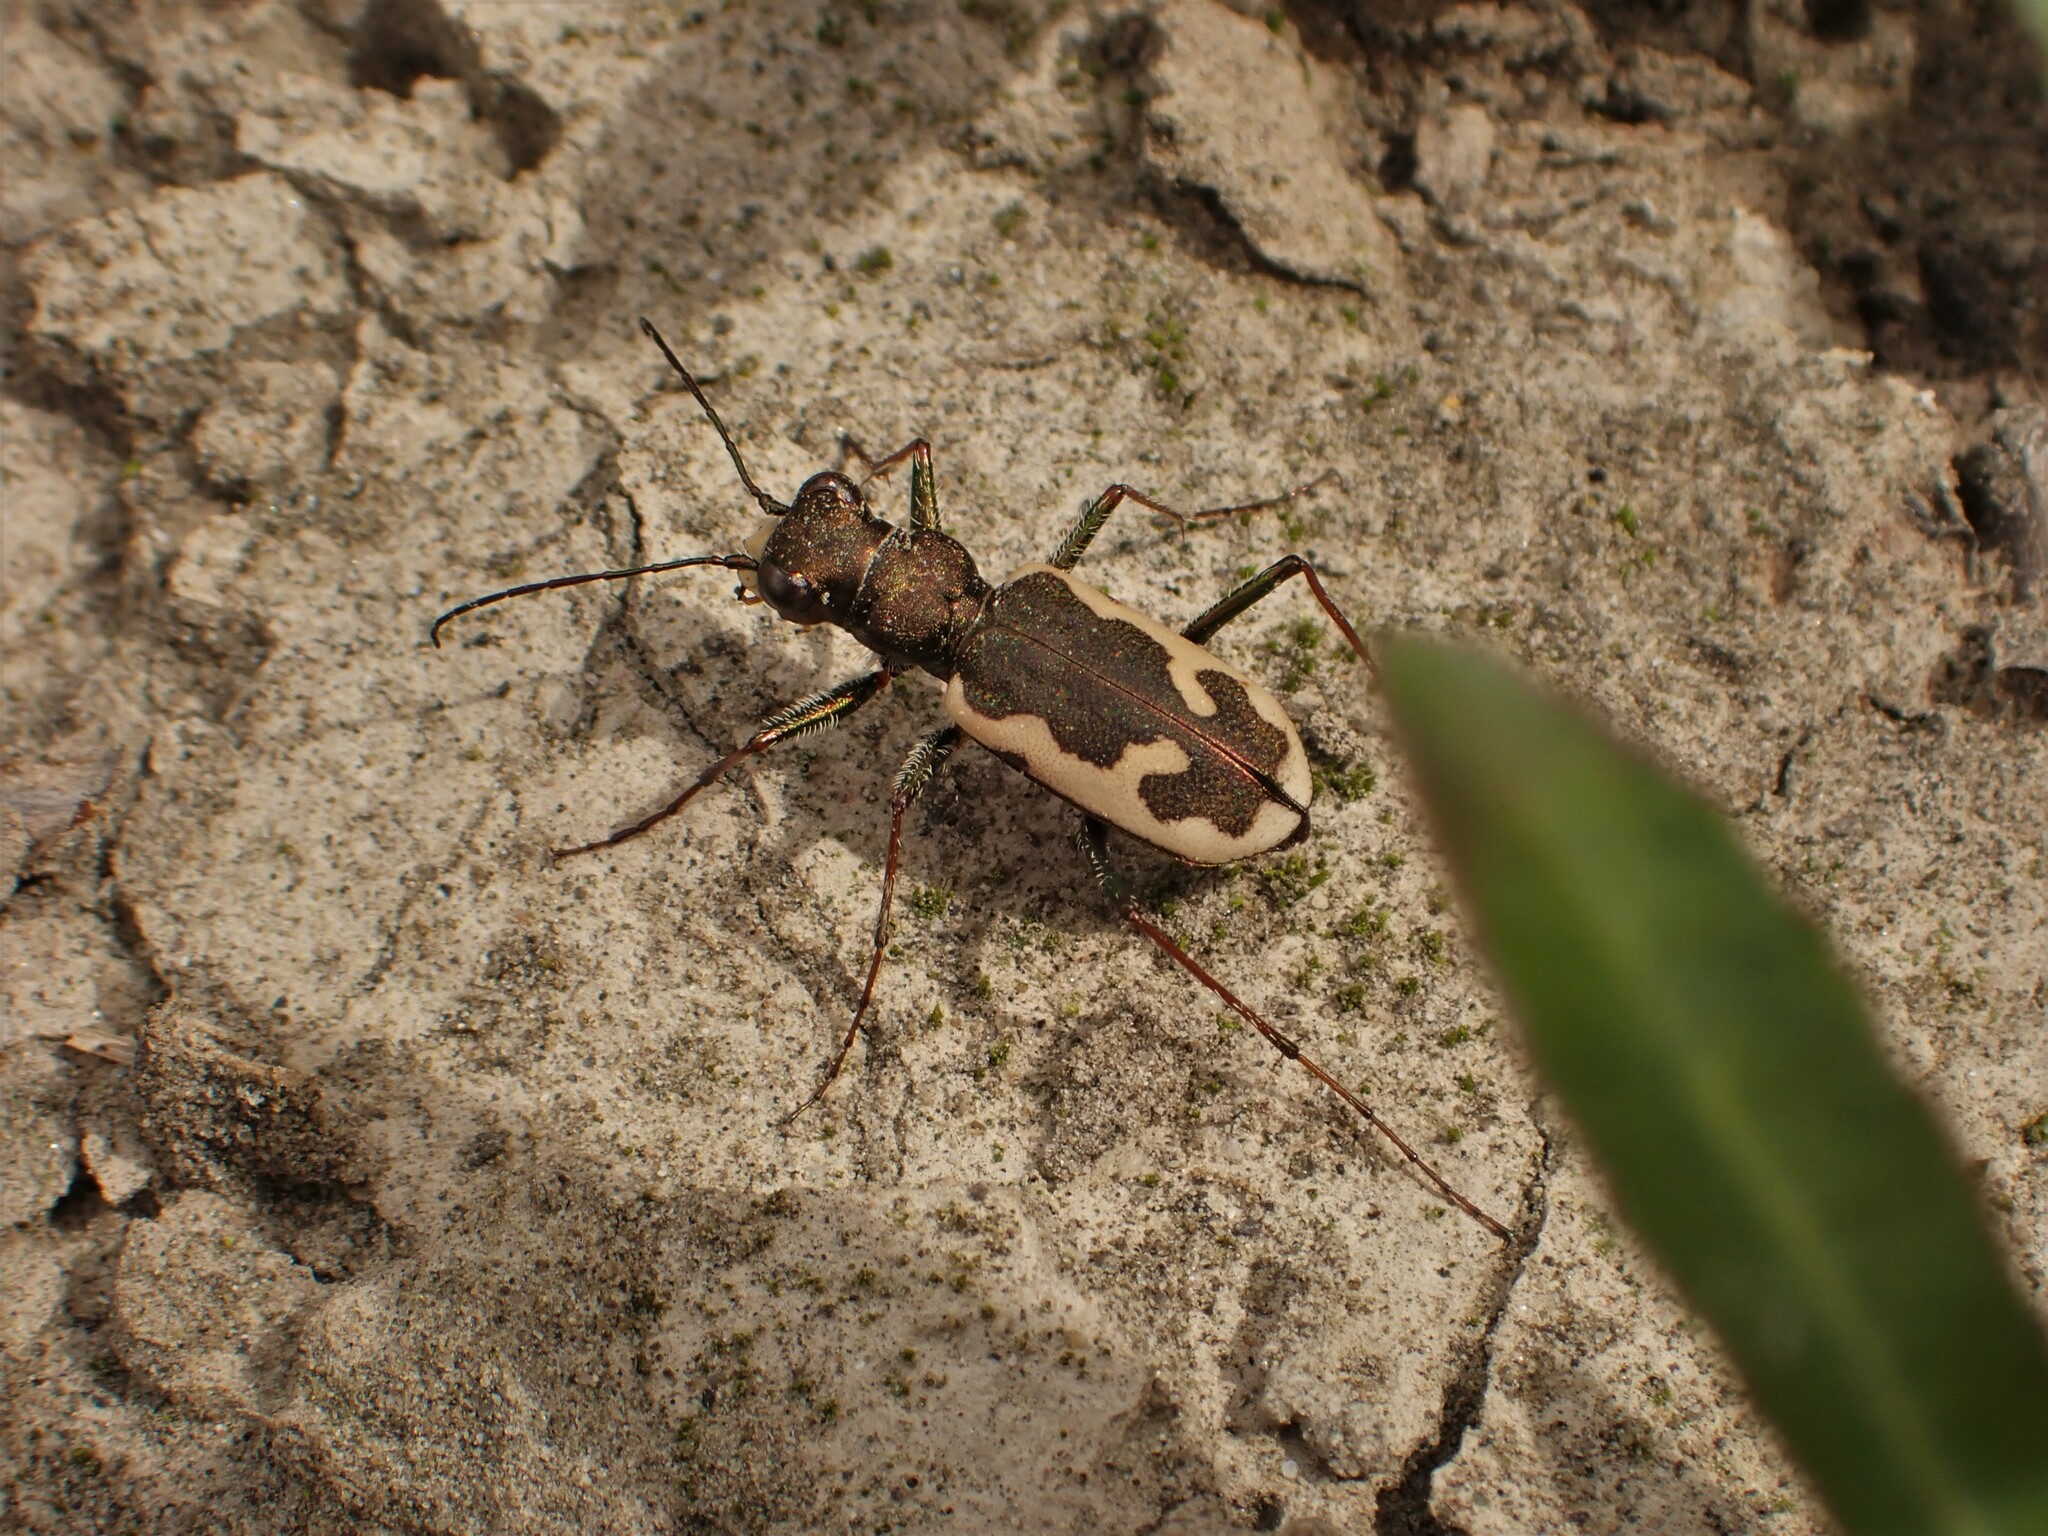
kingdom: Animalia
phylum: Arthropoda
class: Insecta
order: Coleoptera
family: Carabidae
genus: Neocicindela
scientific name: Neocicindela latecincta
